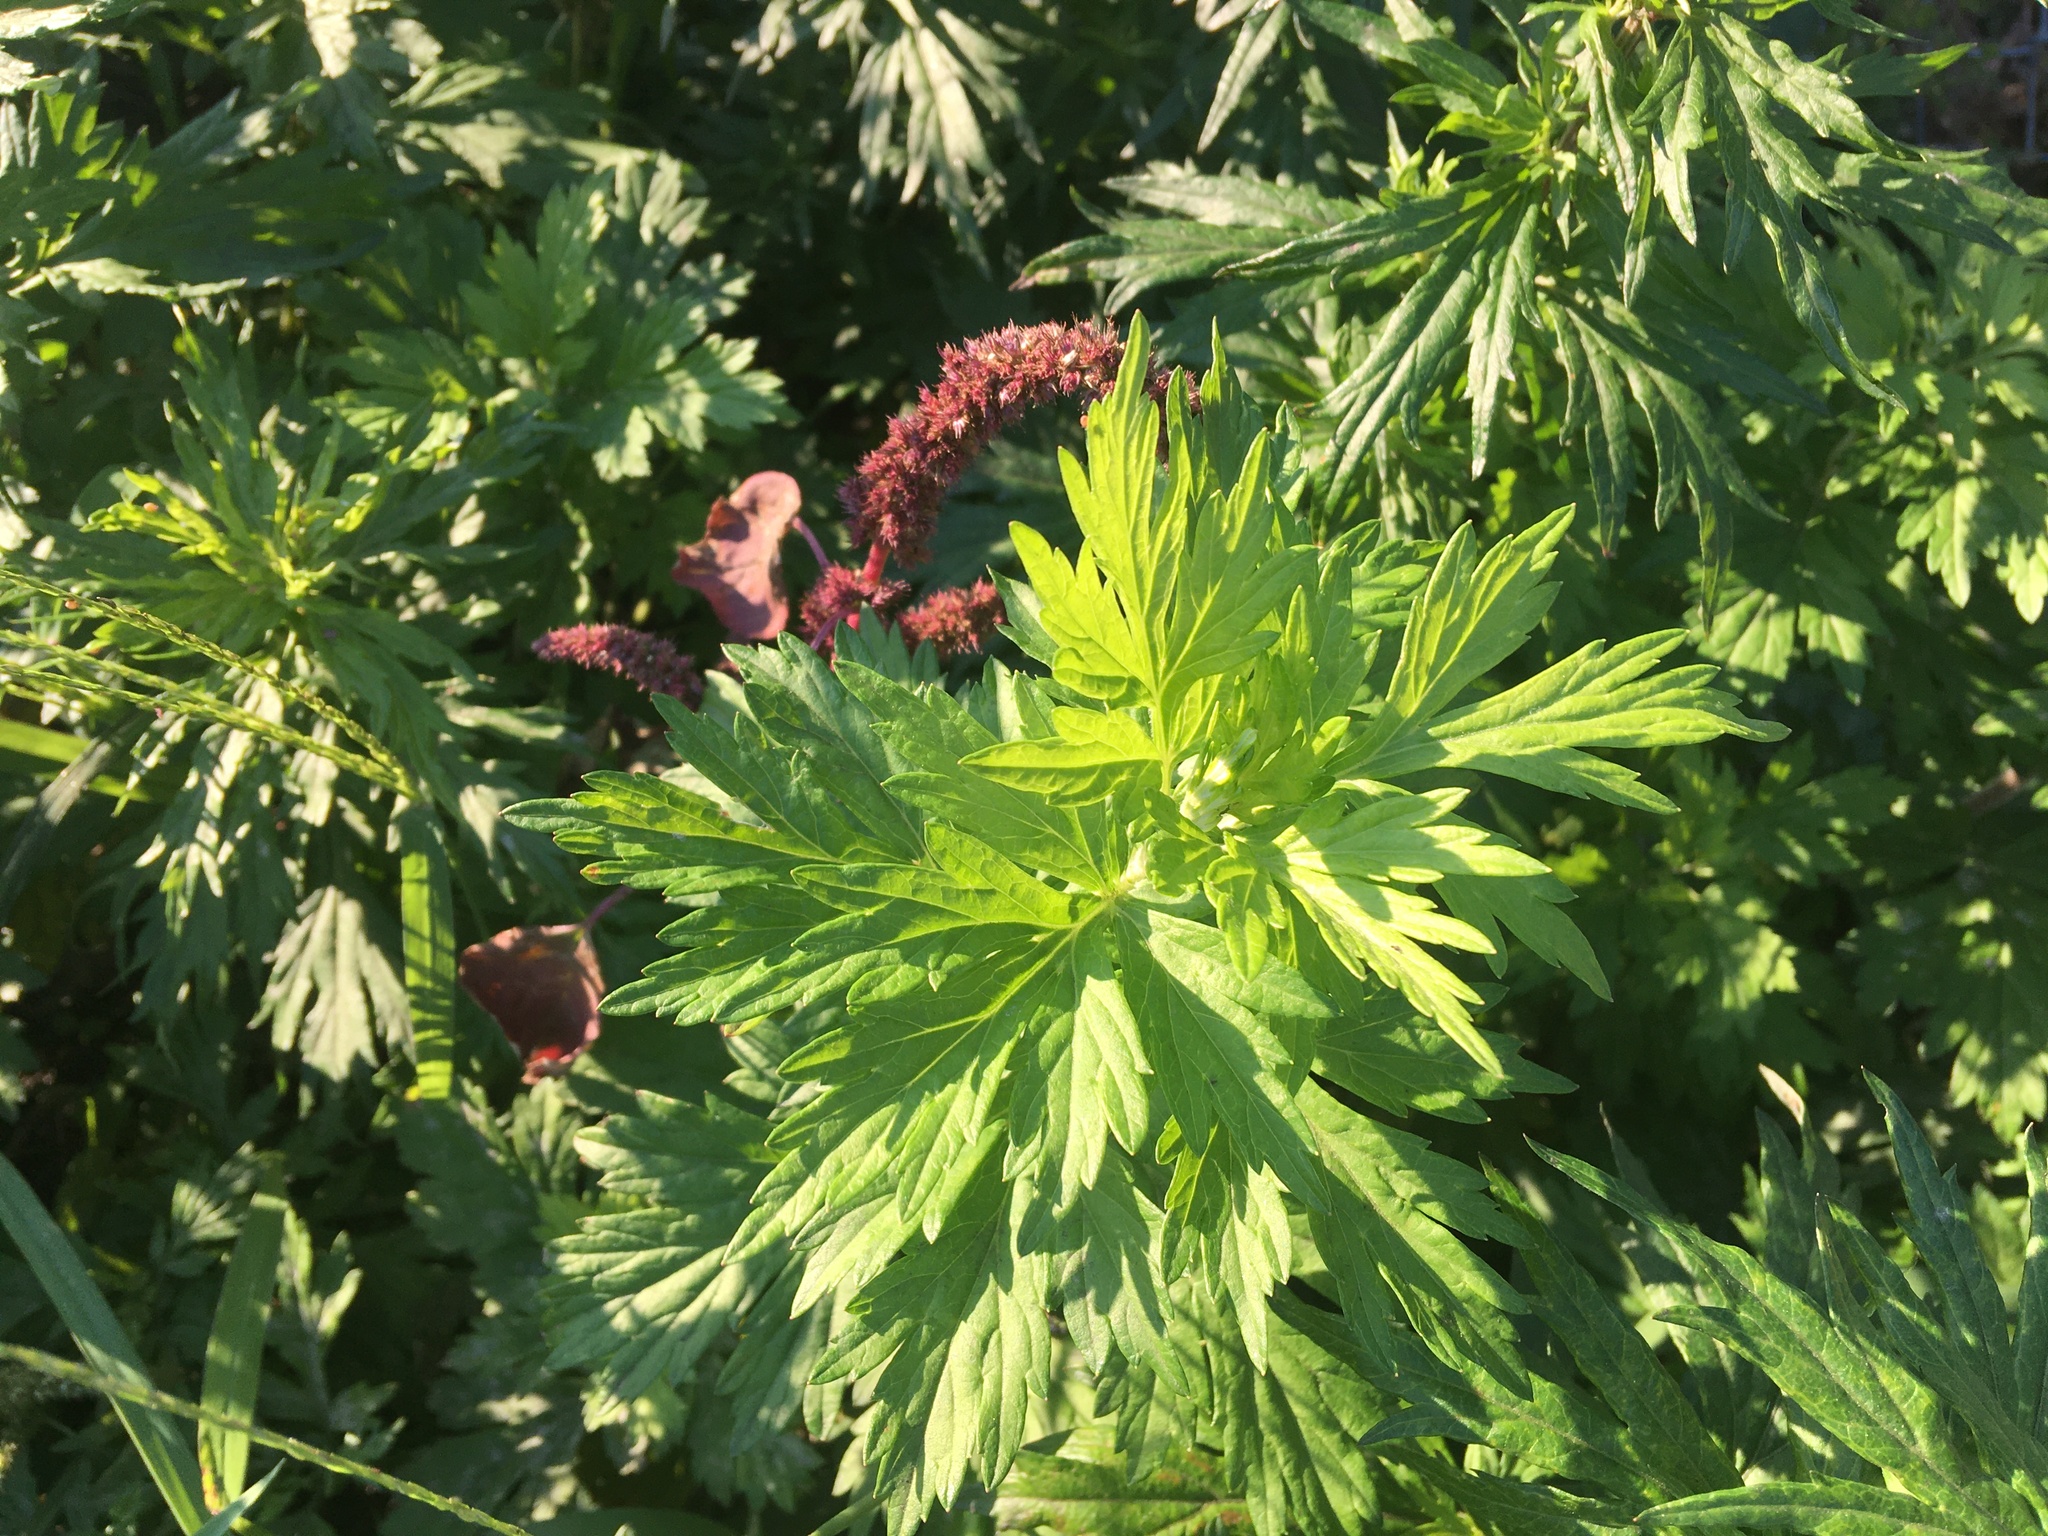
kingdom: Plantae
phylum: Tracheophyta
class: Magnoliopsida
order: Asterales
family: Asteraceae
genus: Artemisia
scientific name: Artemisia vulgaris
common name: Mugwort
